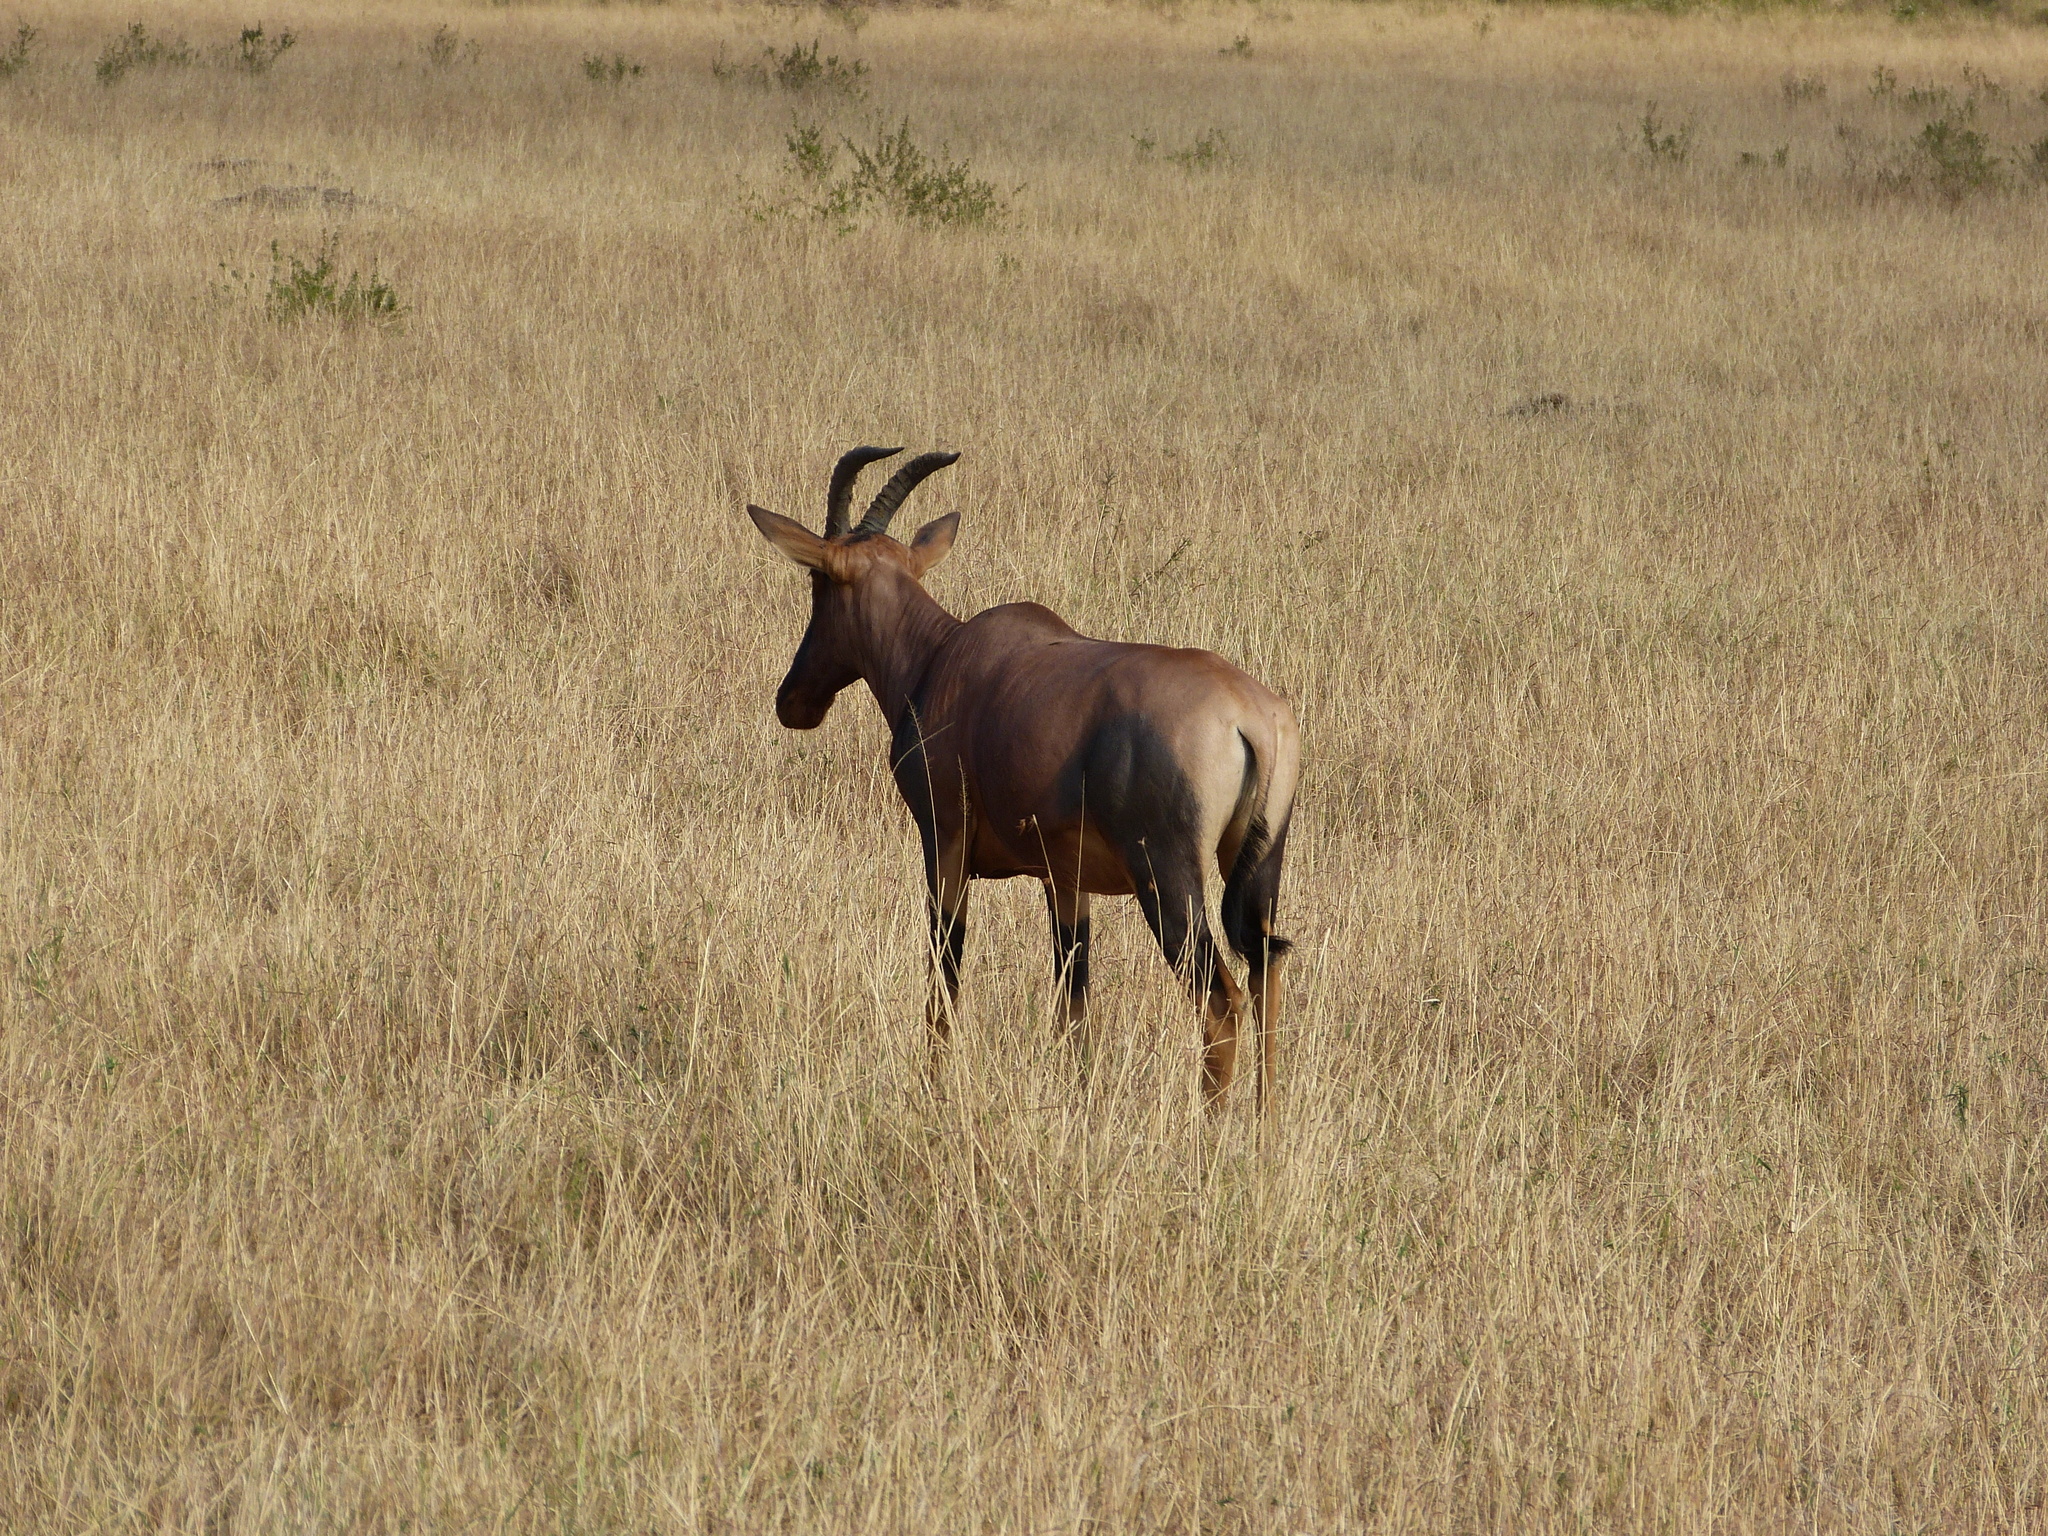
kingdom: Animalia
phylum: Chordata
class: Mammalia
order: Artiodactyla
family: Bovidae
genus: Damaliscus
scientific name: Damaliscus korrigum
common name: Topi
